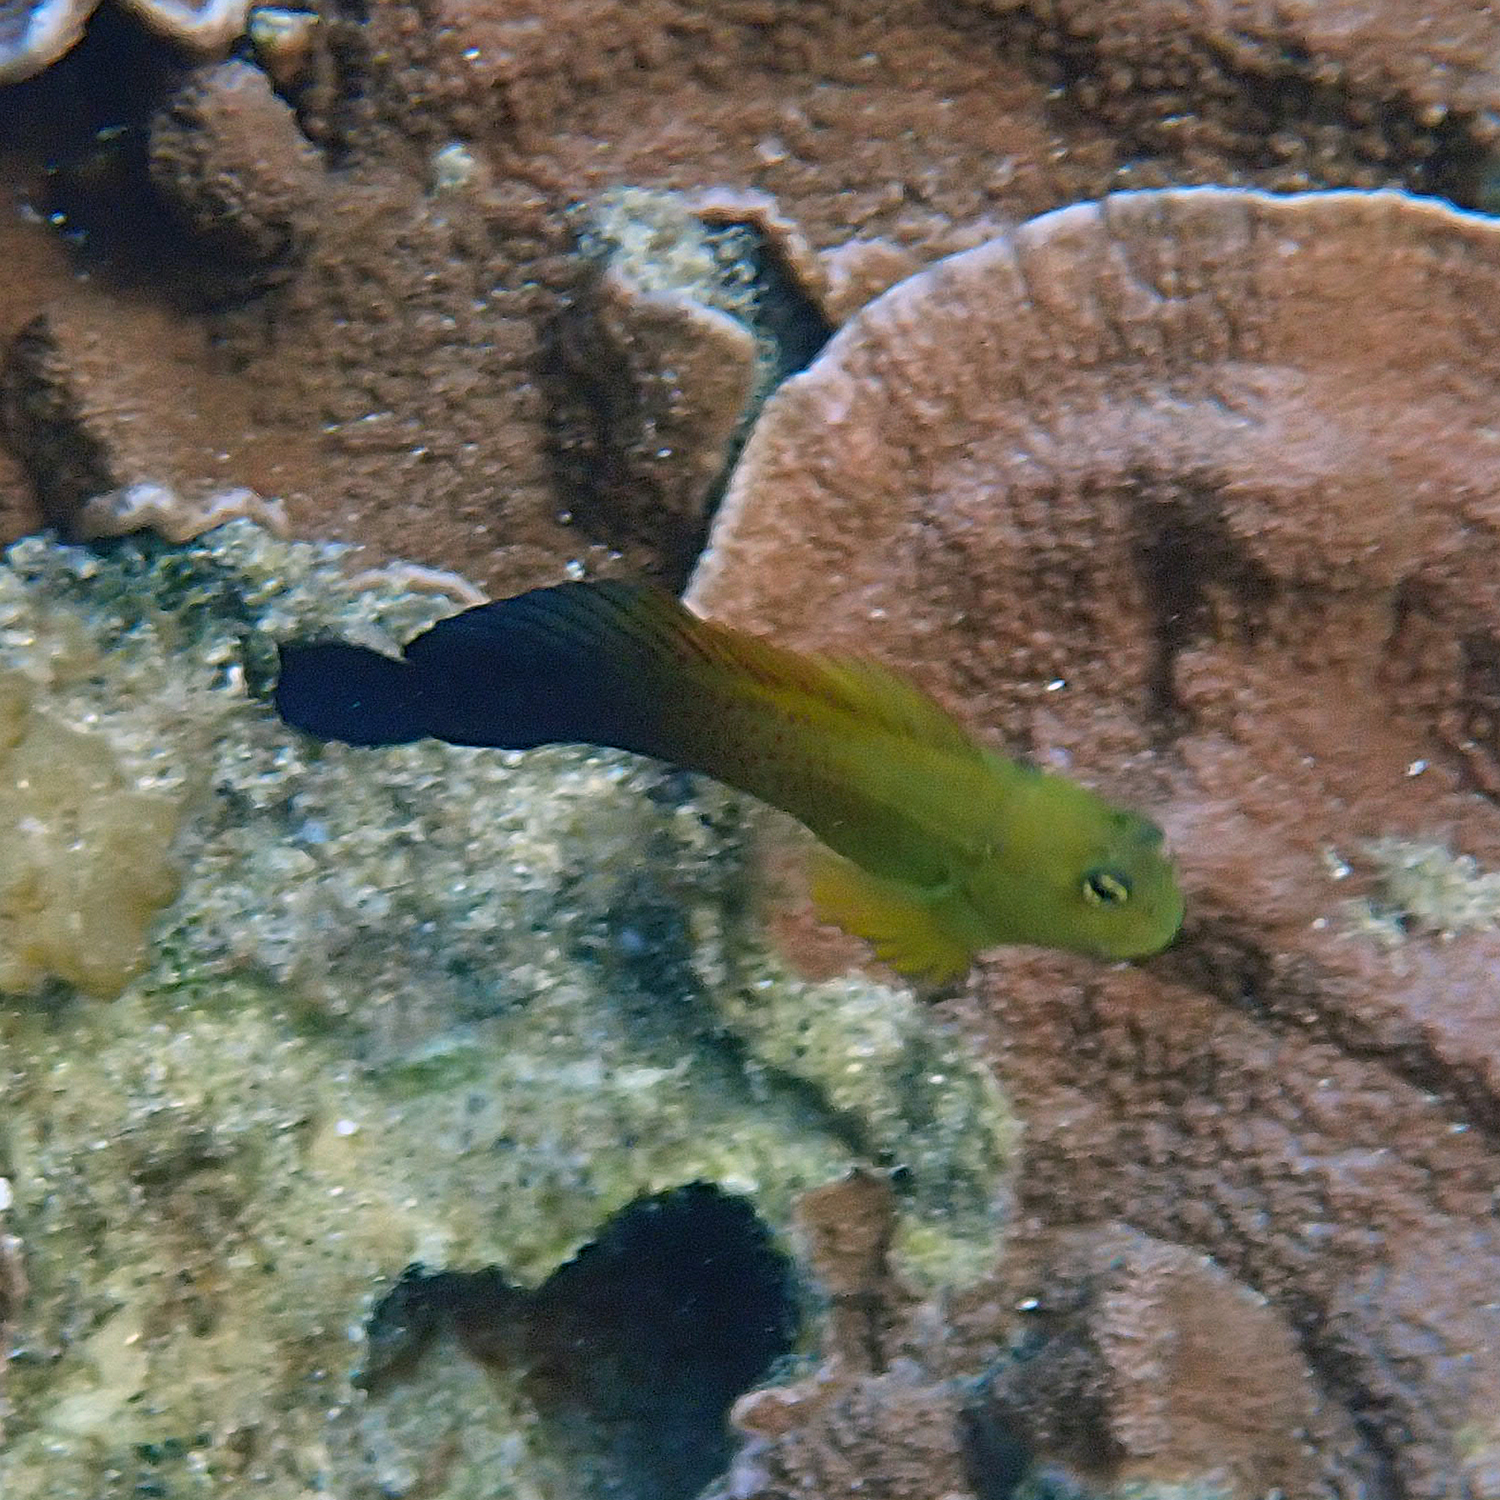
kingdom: Animalia
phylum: Chordata
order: Perciformes
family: Blenniidae
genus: Cirripectes
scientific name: Cirripectes chelomatus
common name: Lady musgrave blenny
